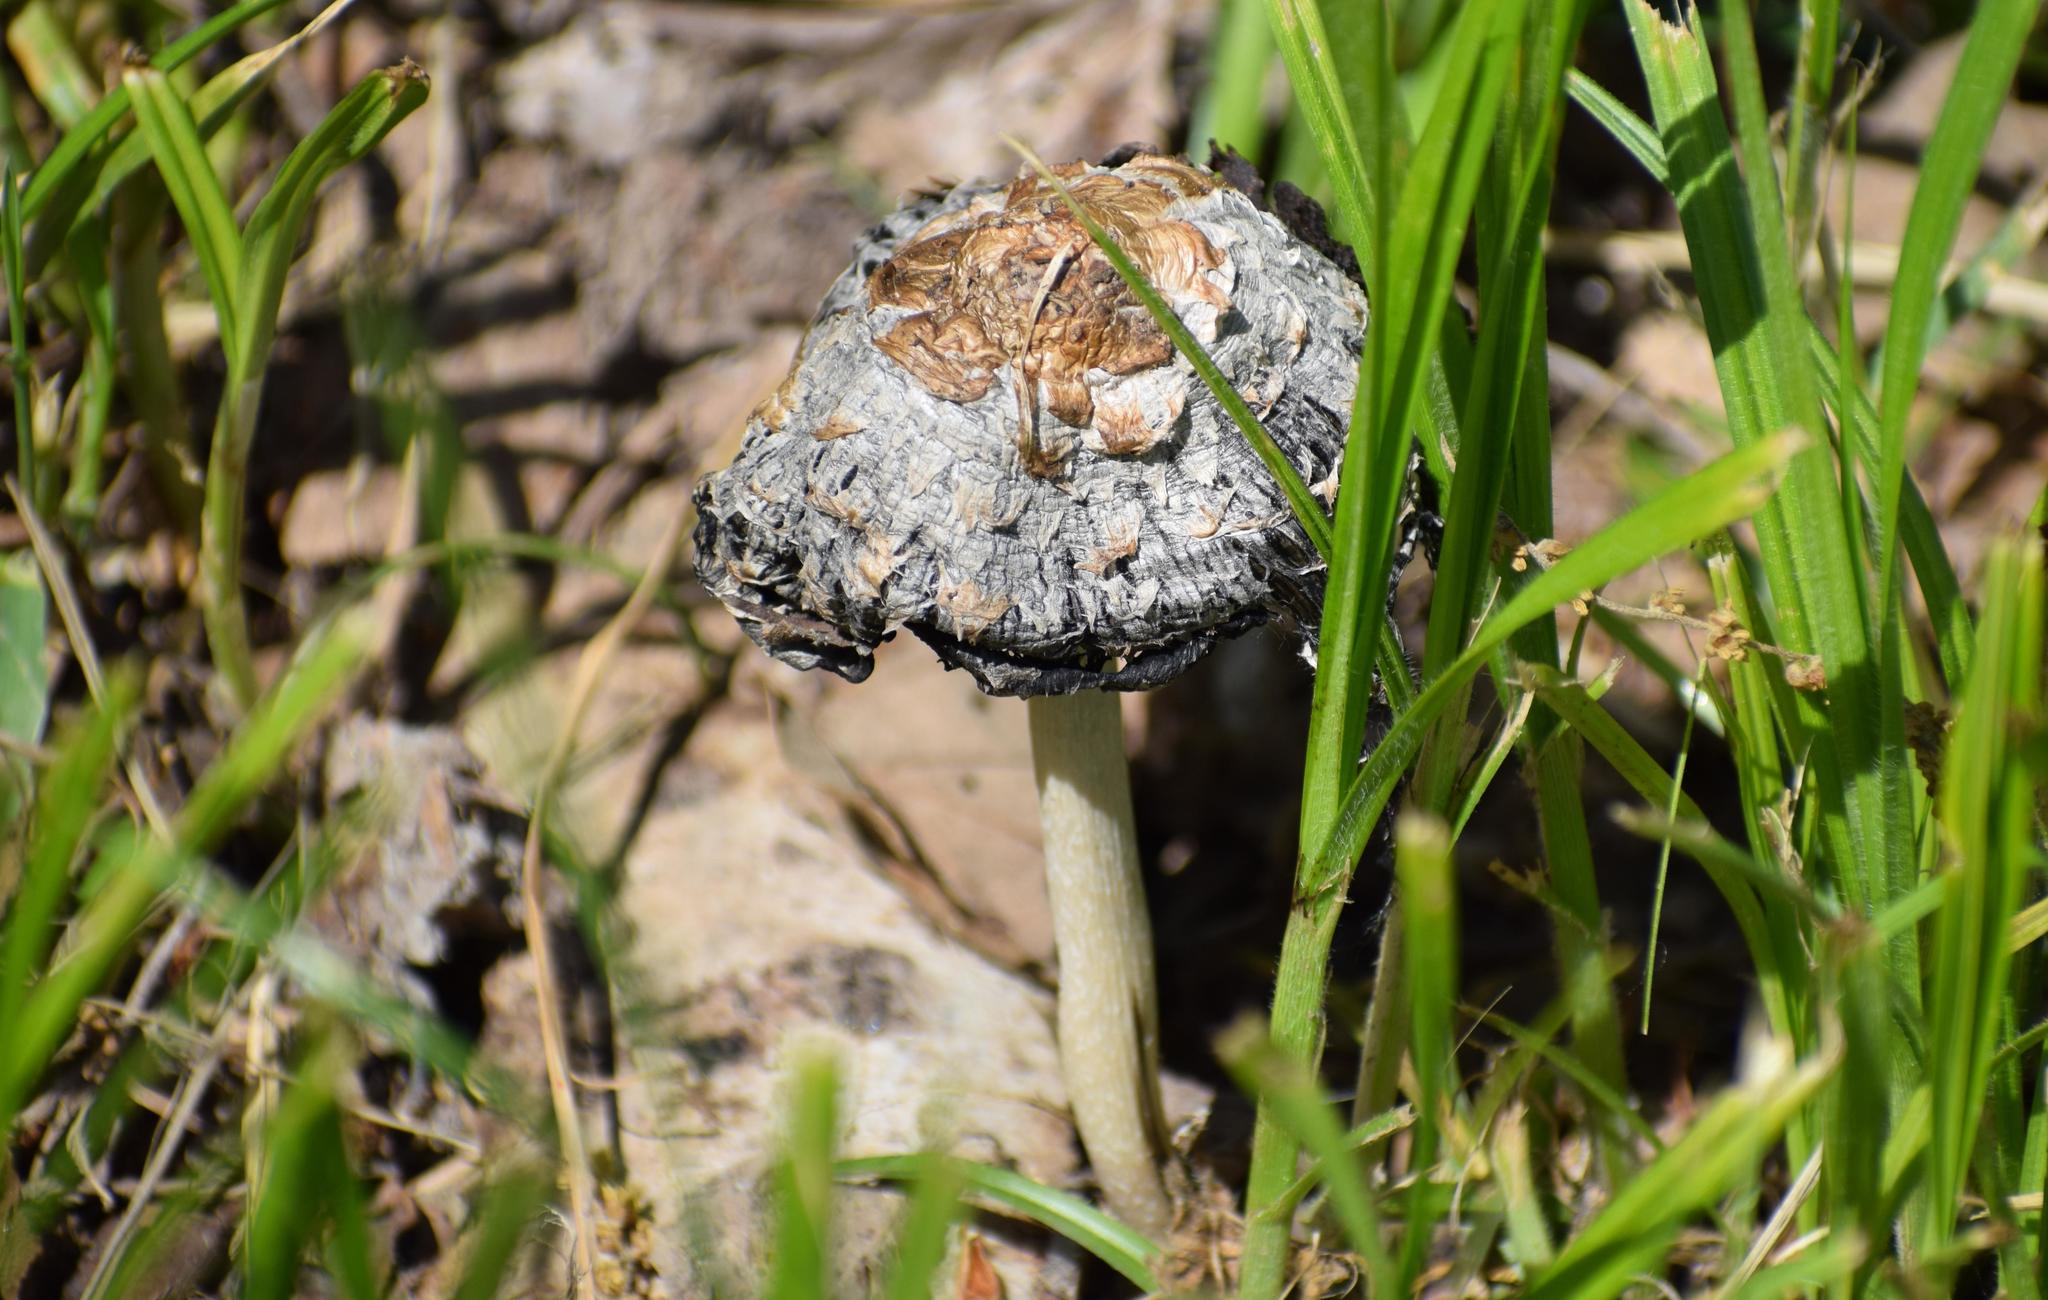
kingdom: Fungi
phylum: Basidiomycota
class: Agaricomycetes
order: Agaricales
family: Agaricaceae
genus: Coprinus
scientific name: Coprinus comatus
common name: Lawyer's wig
